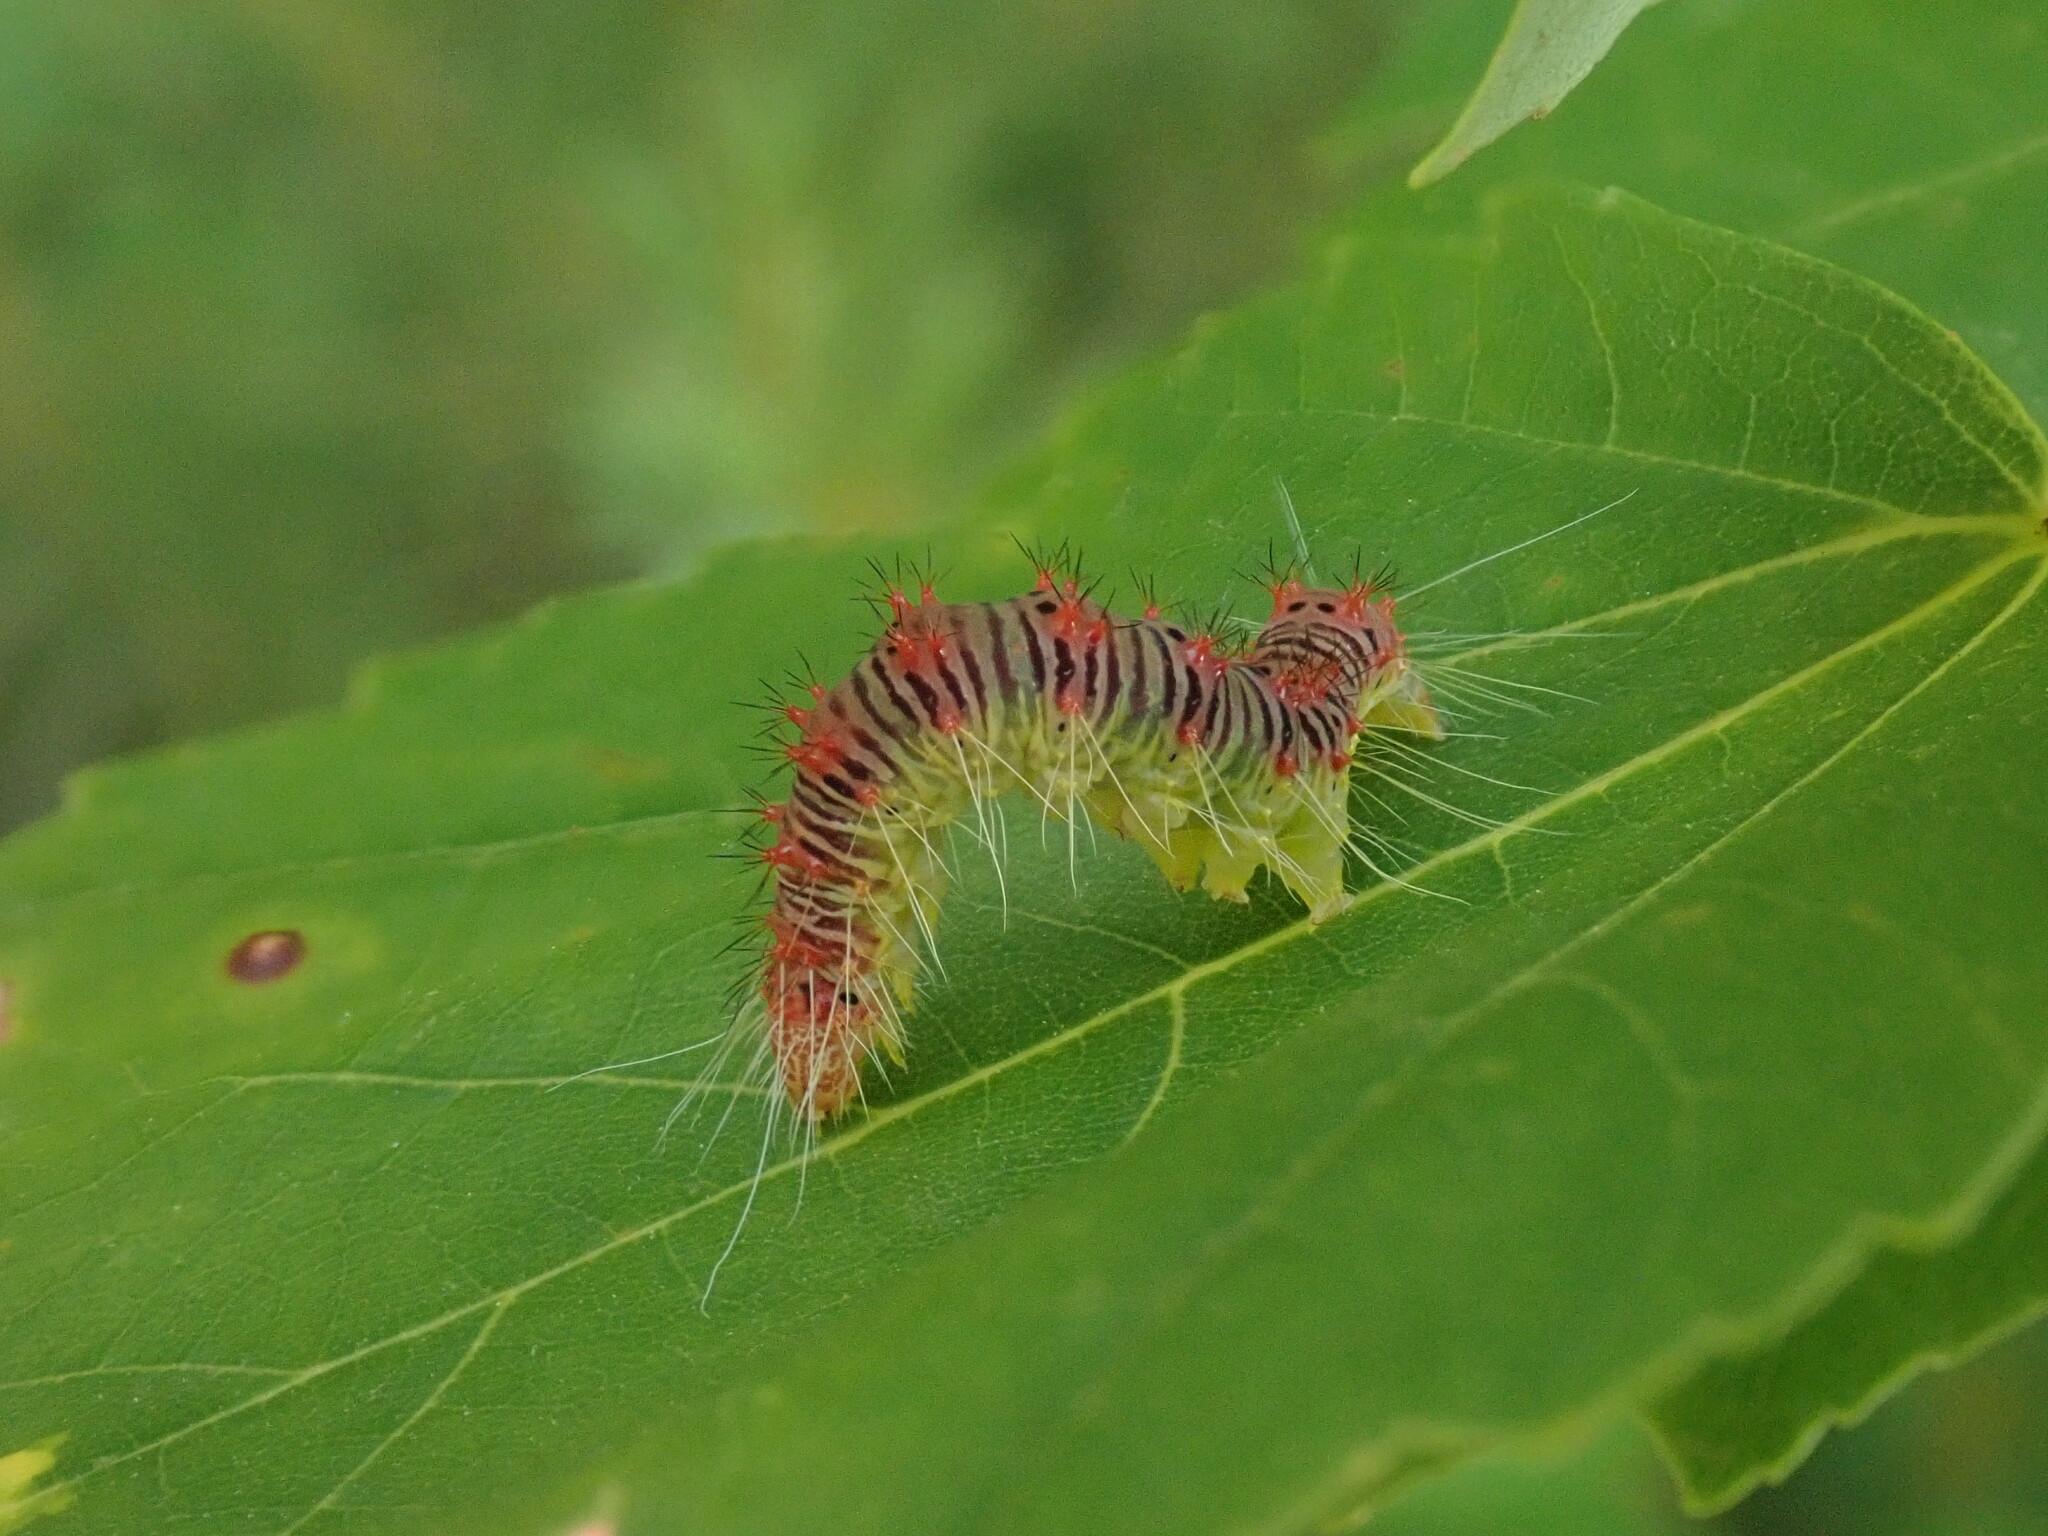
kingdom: Animalia
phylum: Arthropoda
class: Insecta
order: Lepidoptera
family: Noctuidae
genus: Acronicta
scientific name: Acronicta retardata
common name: Maple dagger
